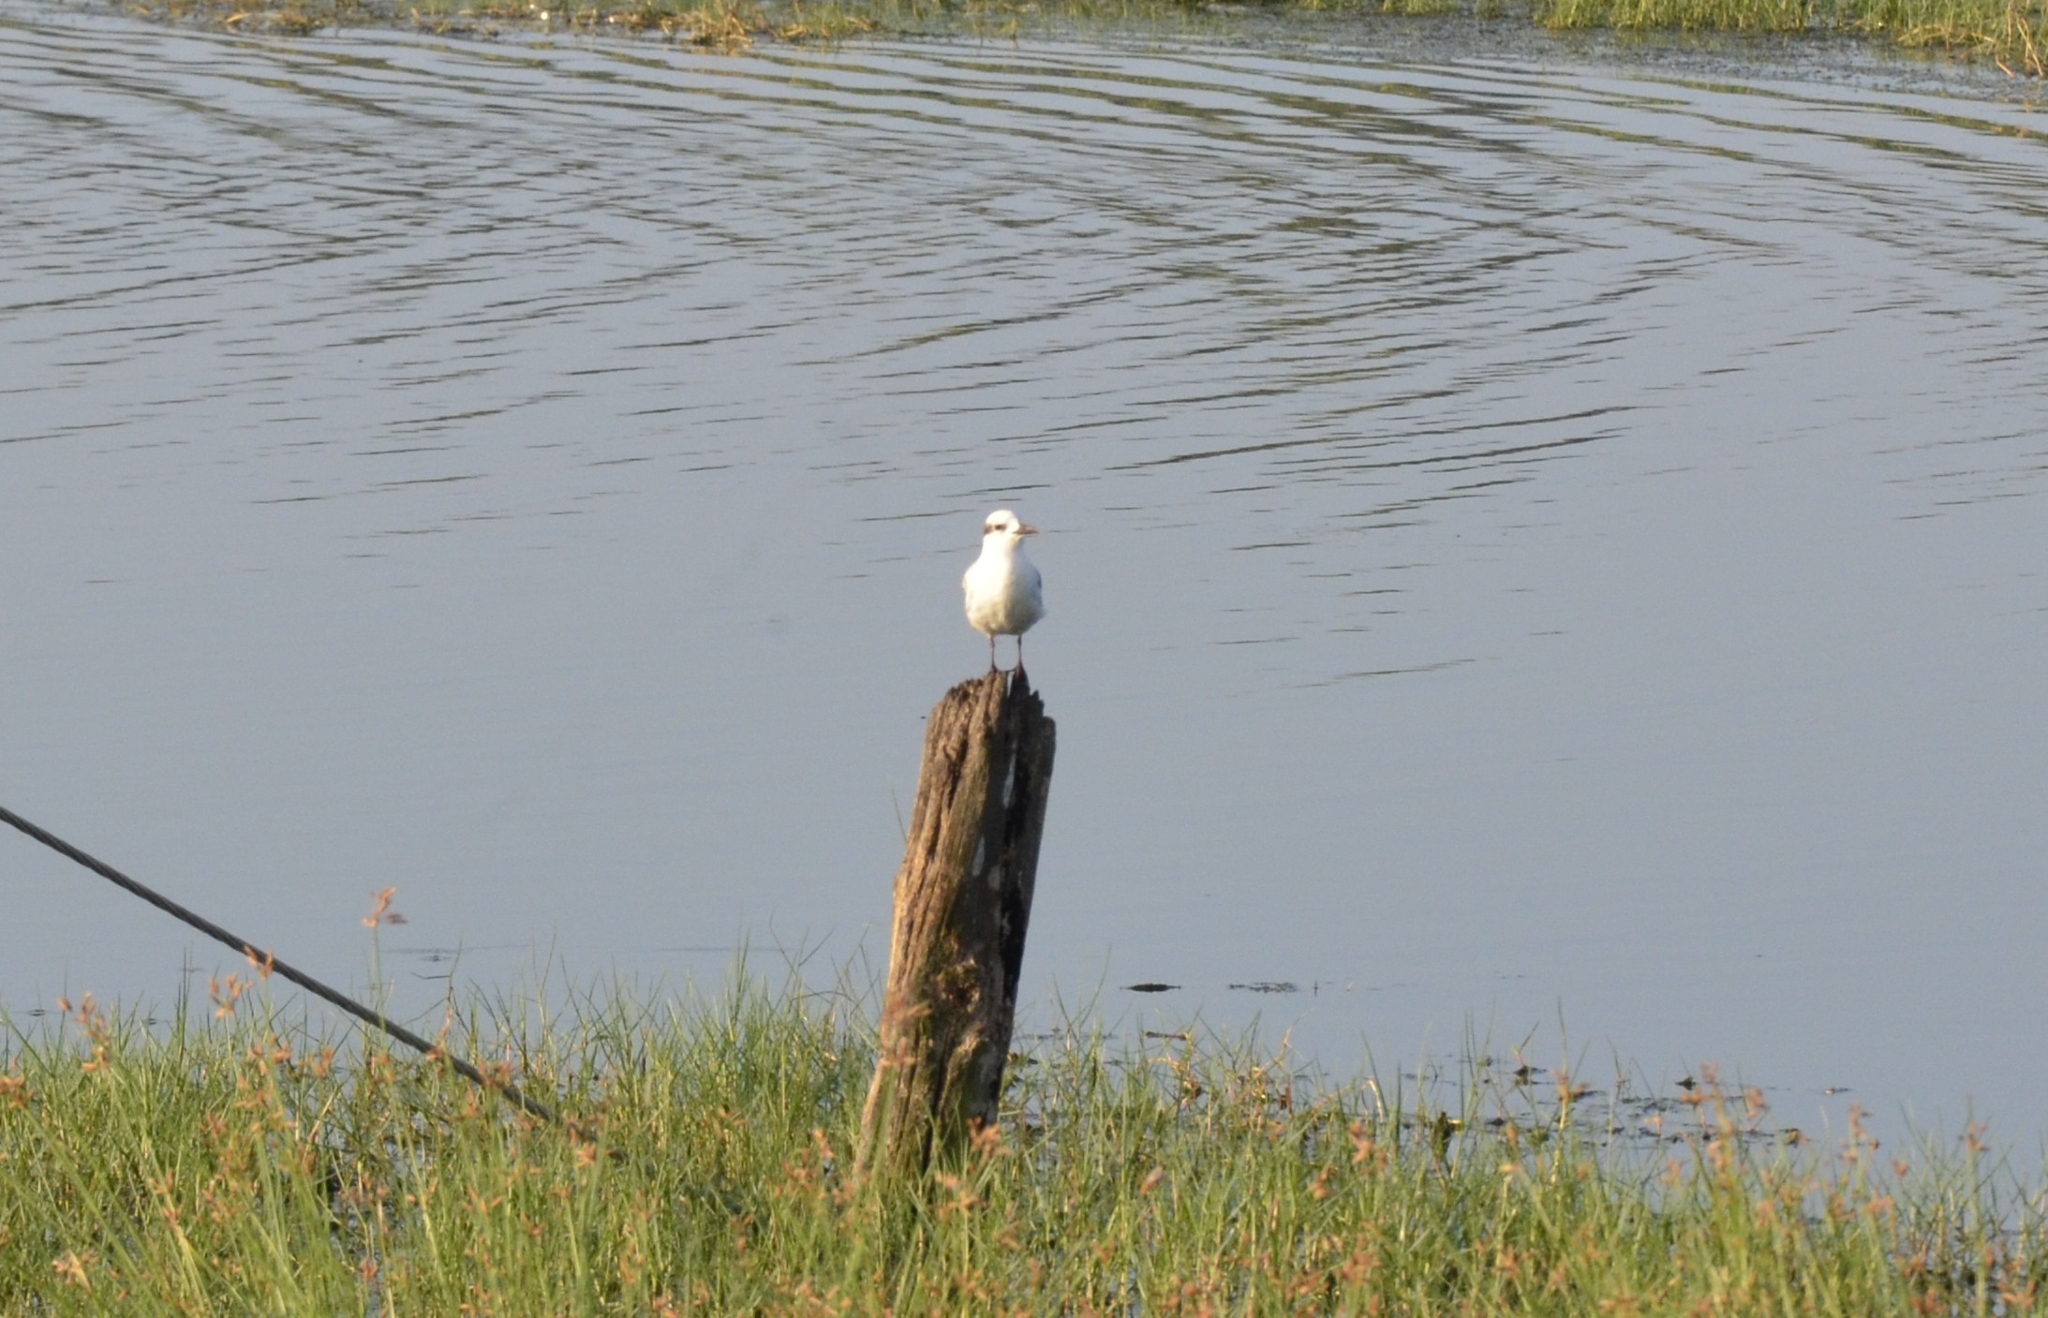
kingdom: Animalia
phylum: Chordata
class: Aves
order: Charadriiformes
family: Laridae
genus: Chlidonias
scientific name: Chlidonias hybrida
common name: Whiskered tern
